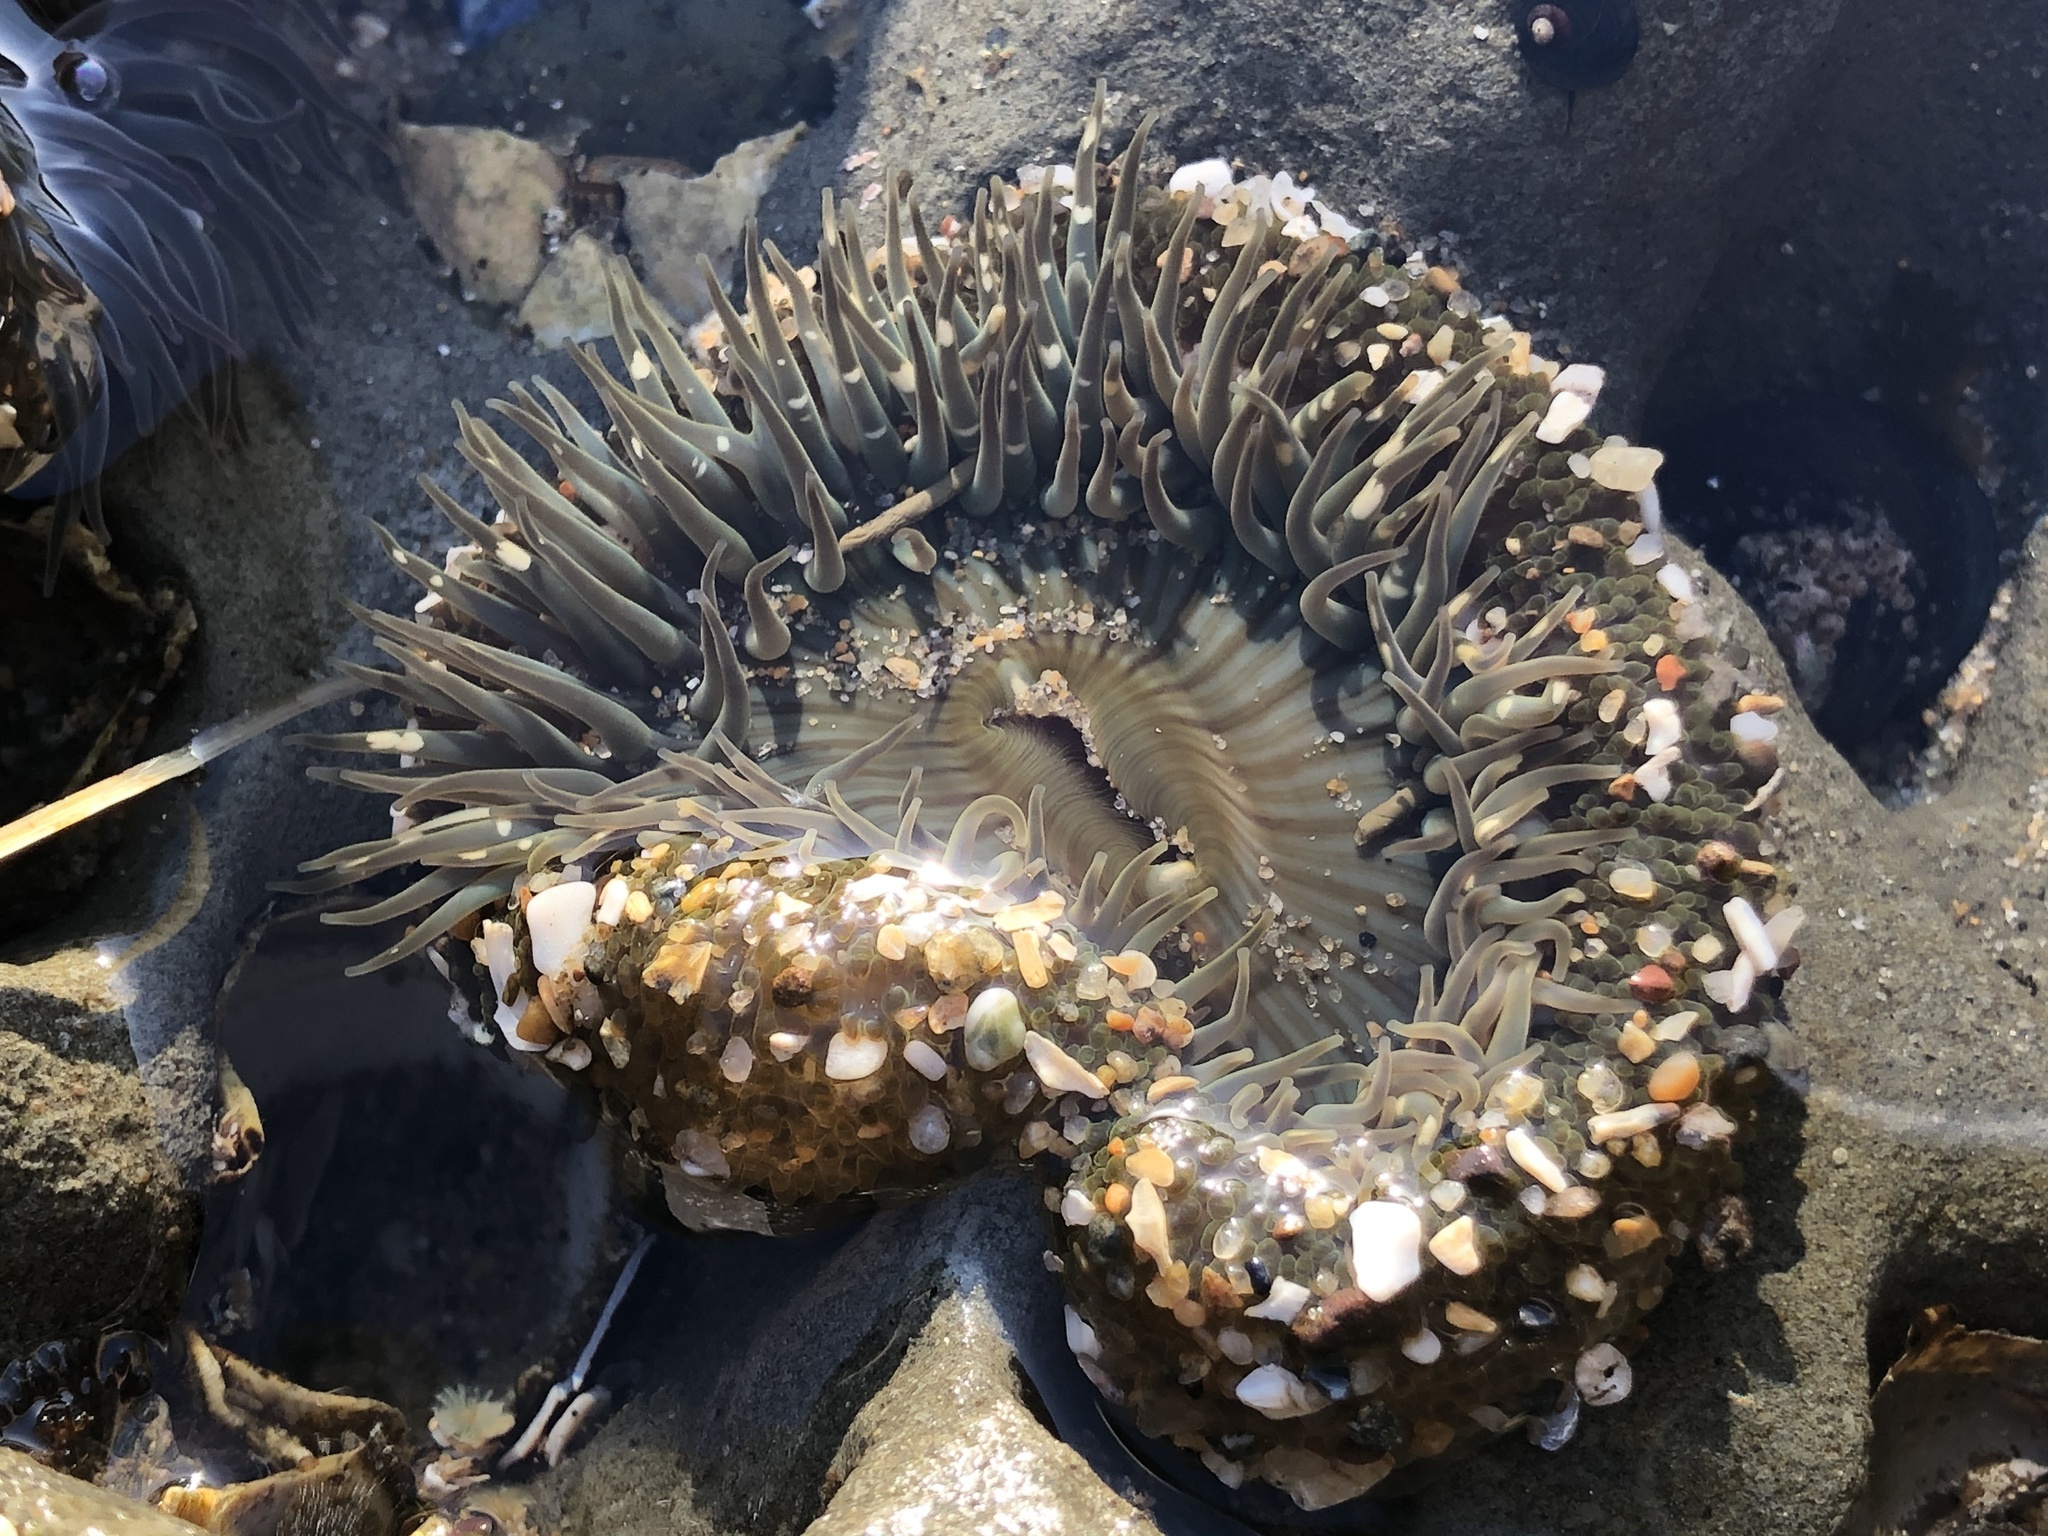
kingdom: Animalia
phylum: Cnidaria
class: Anthozoa
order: Actiniaria
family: Actiniidae
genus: Anthopleura
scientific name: Anthopleura sola
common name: Sun anemone
